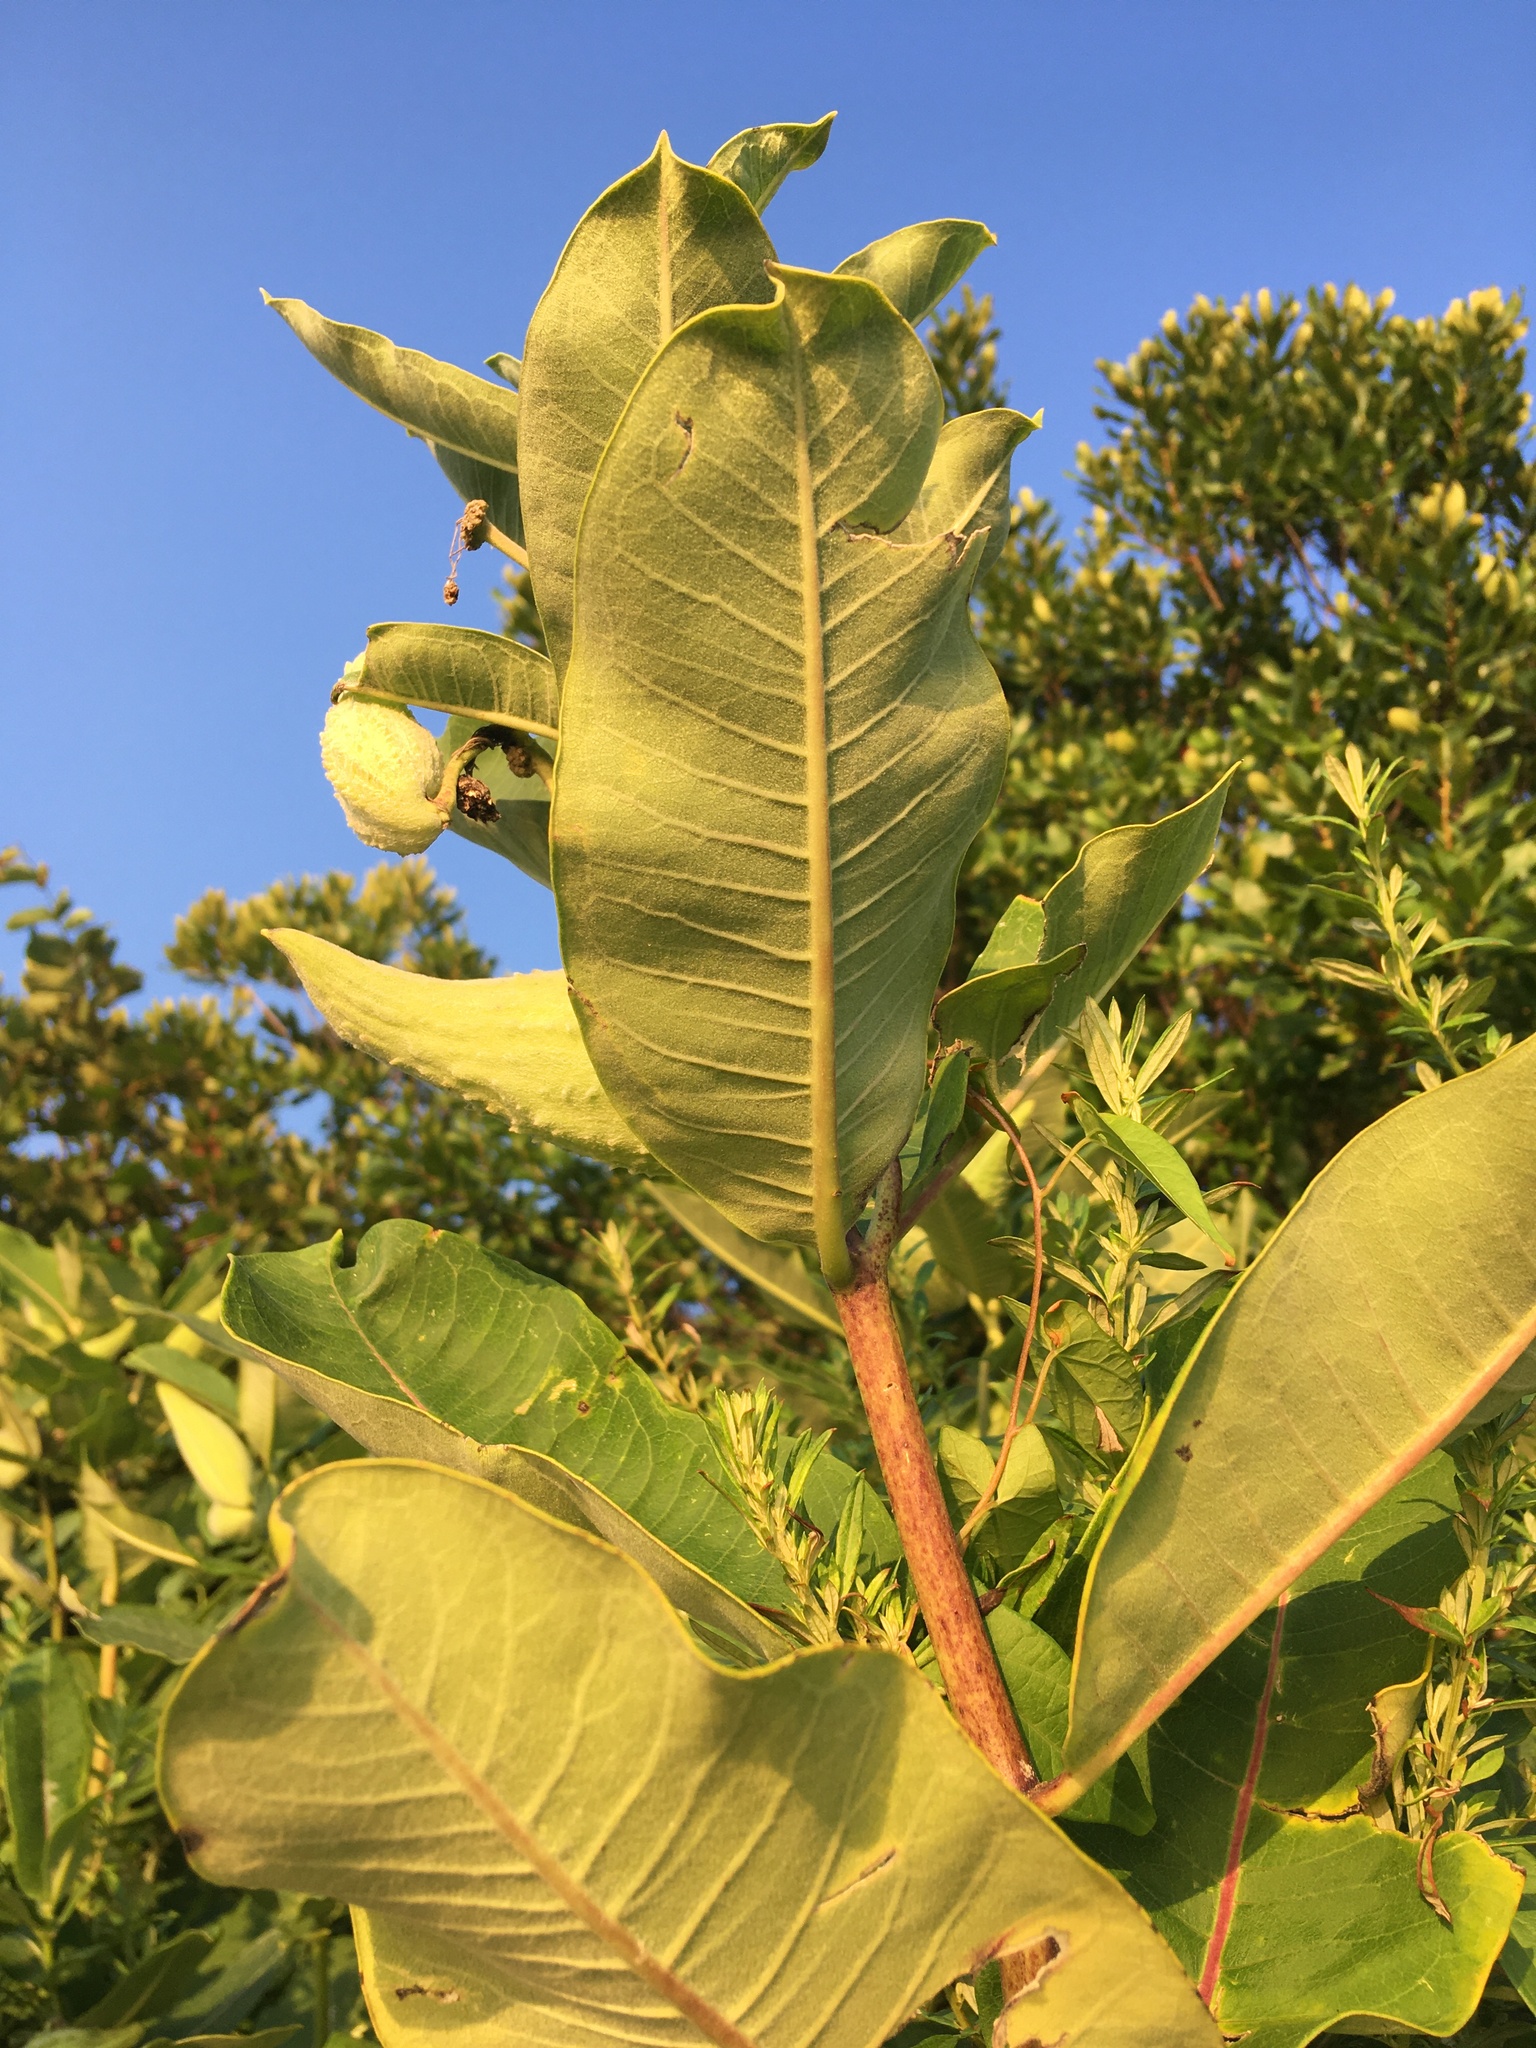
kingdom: Plantae
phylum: Tracheophyta
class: Magnoliopsida
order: Gentianales
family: Apocynaceae
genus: Asclepias
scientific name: Asclepias syriaca
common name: Common milkweed
